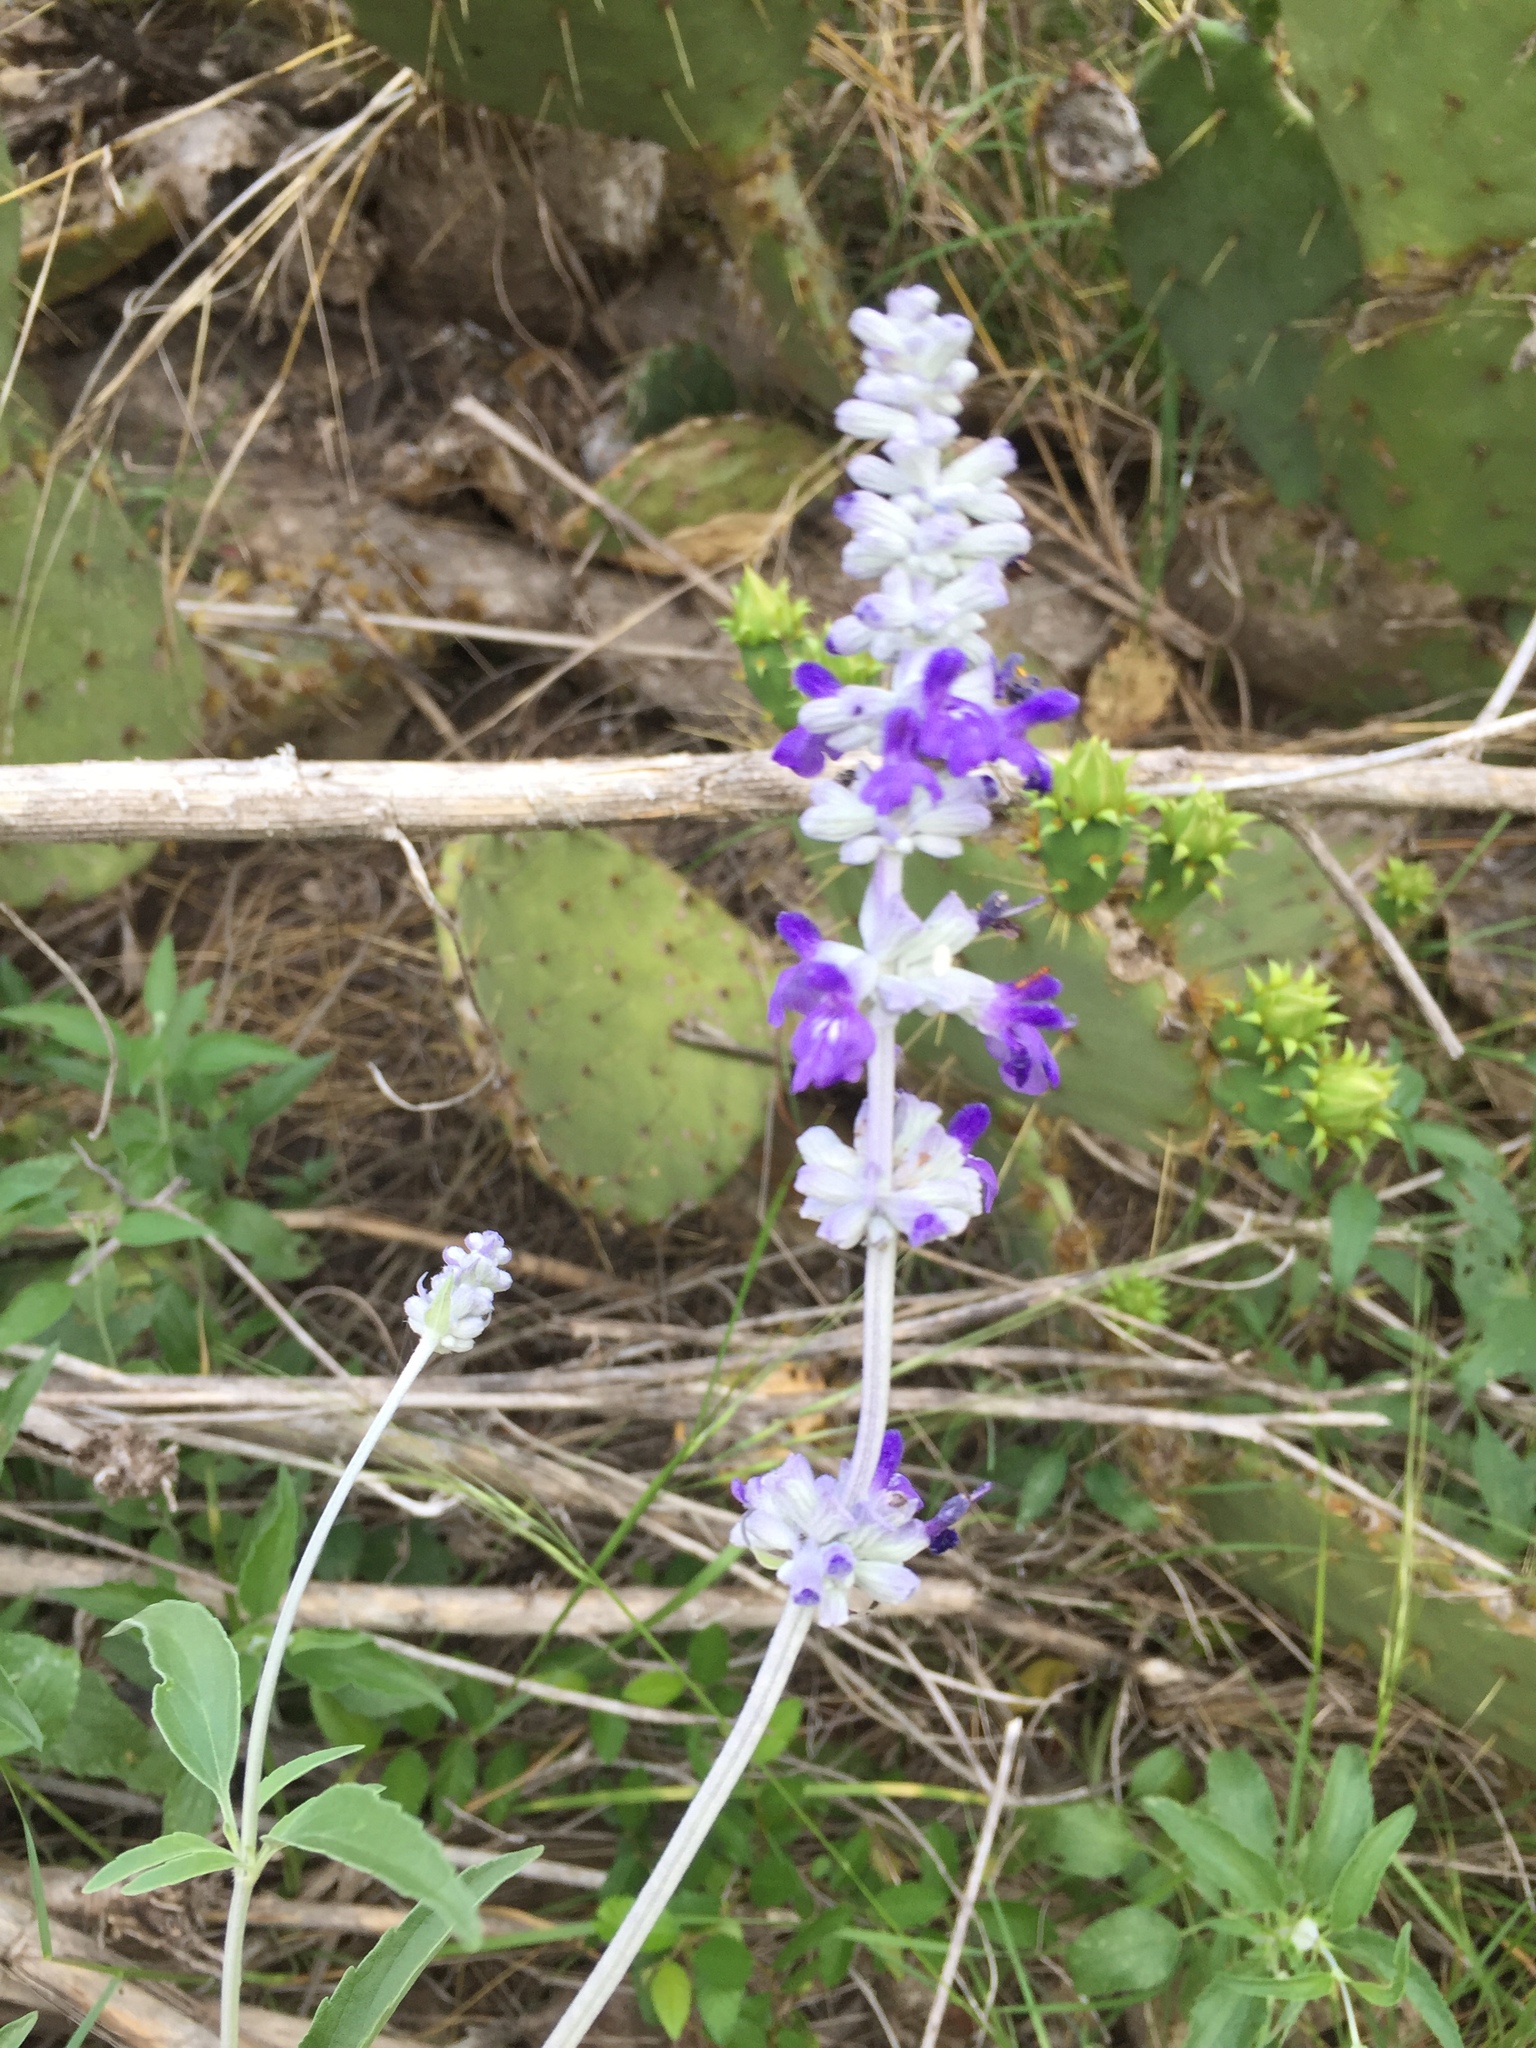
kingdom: Plantae
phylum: Tracheophyta
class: Magnoliopsida
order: Lamiales
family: Lamiaceae
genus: Salvia
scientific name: Salvia farinacea
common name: Mealy sage
